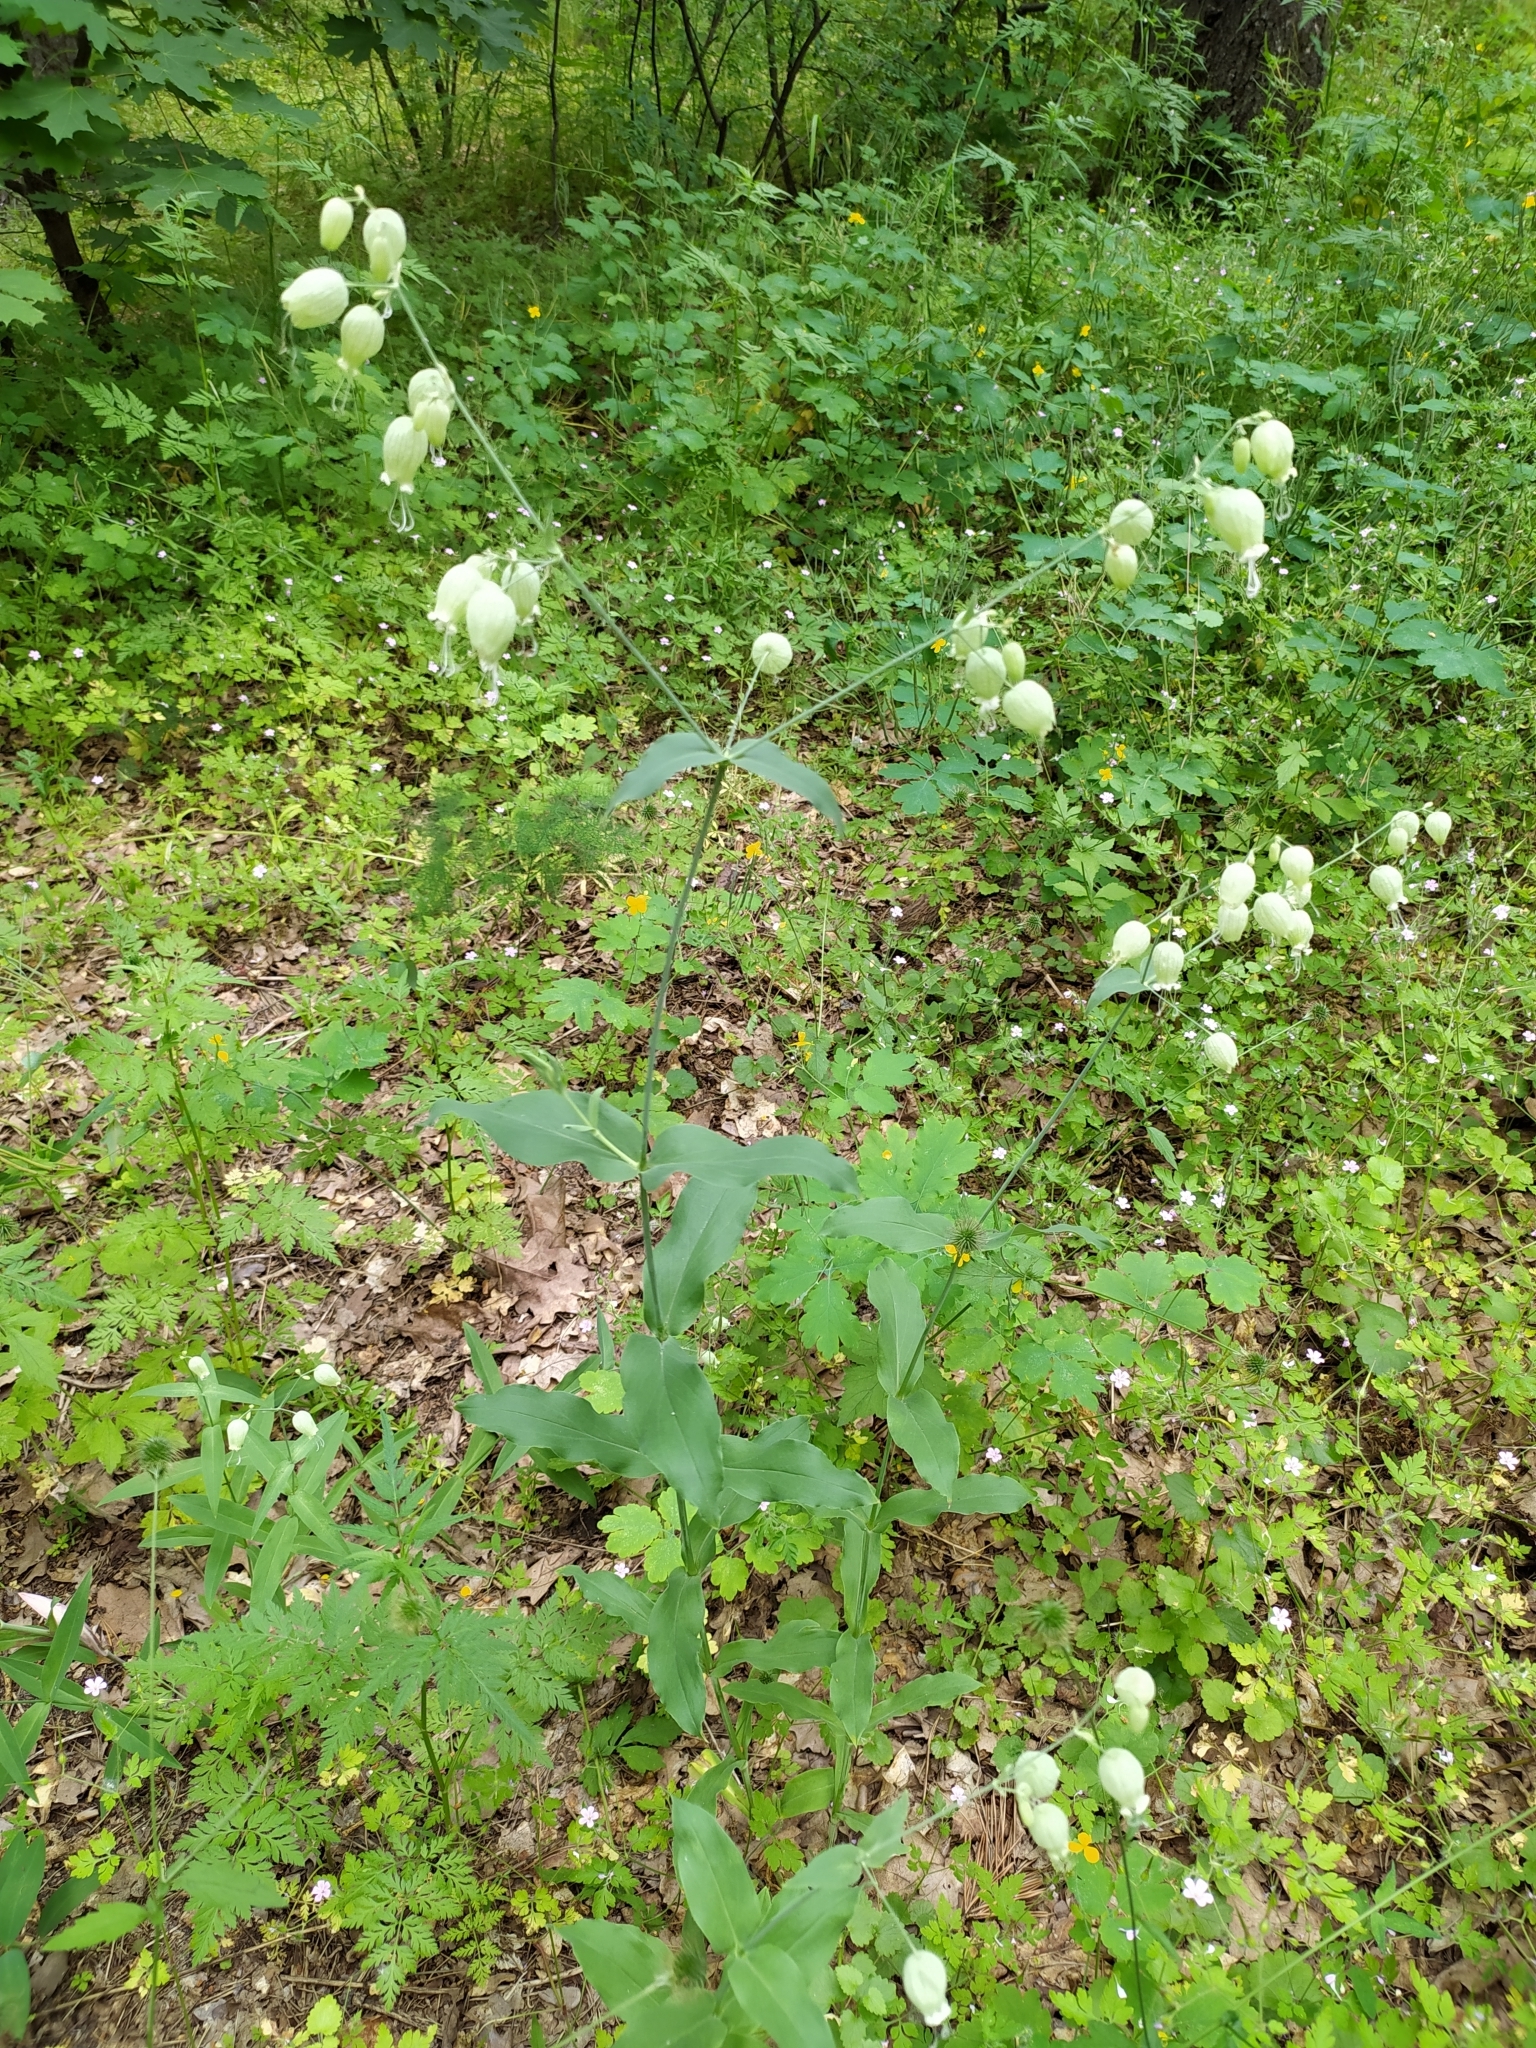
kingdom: Plantae
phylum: Tracheophyta
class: Magnoliopsida
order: Caryophyllales
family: Caryophyllaceae
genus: Silene
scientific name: Silene vulgaris
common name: Bladder campion
